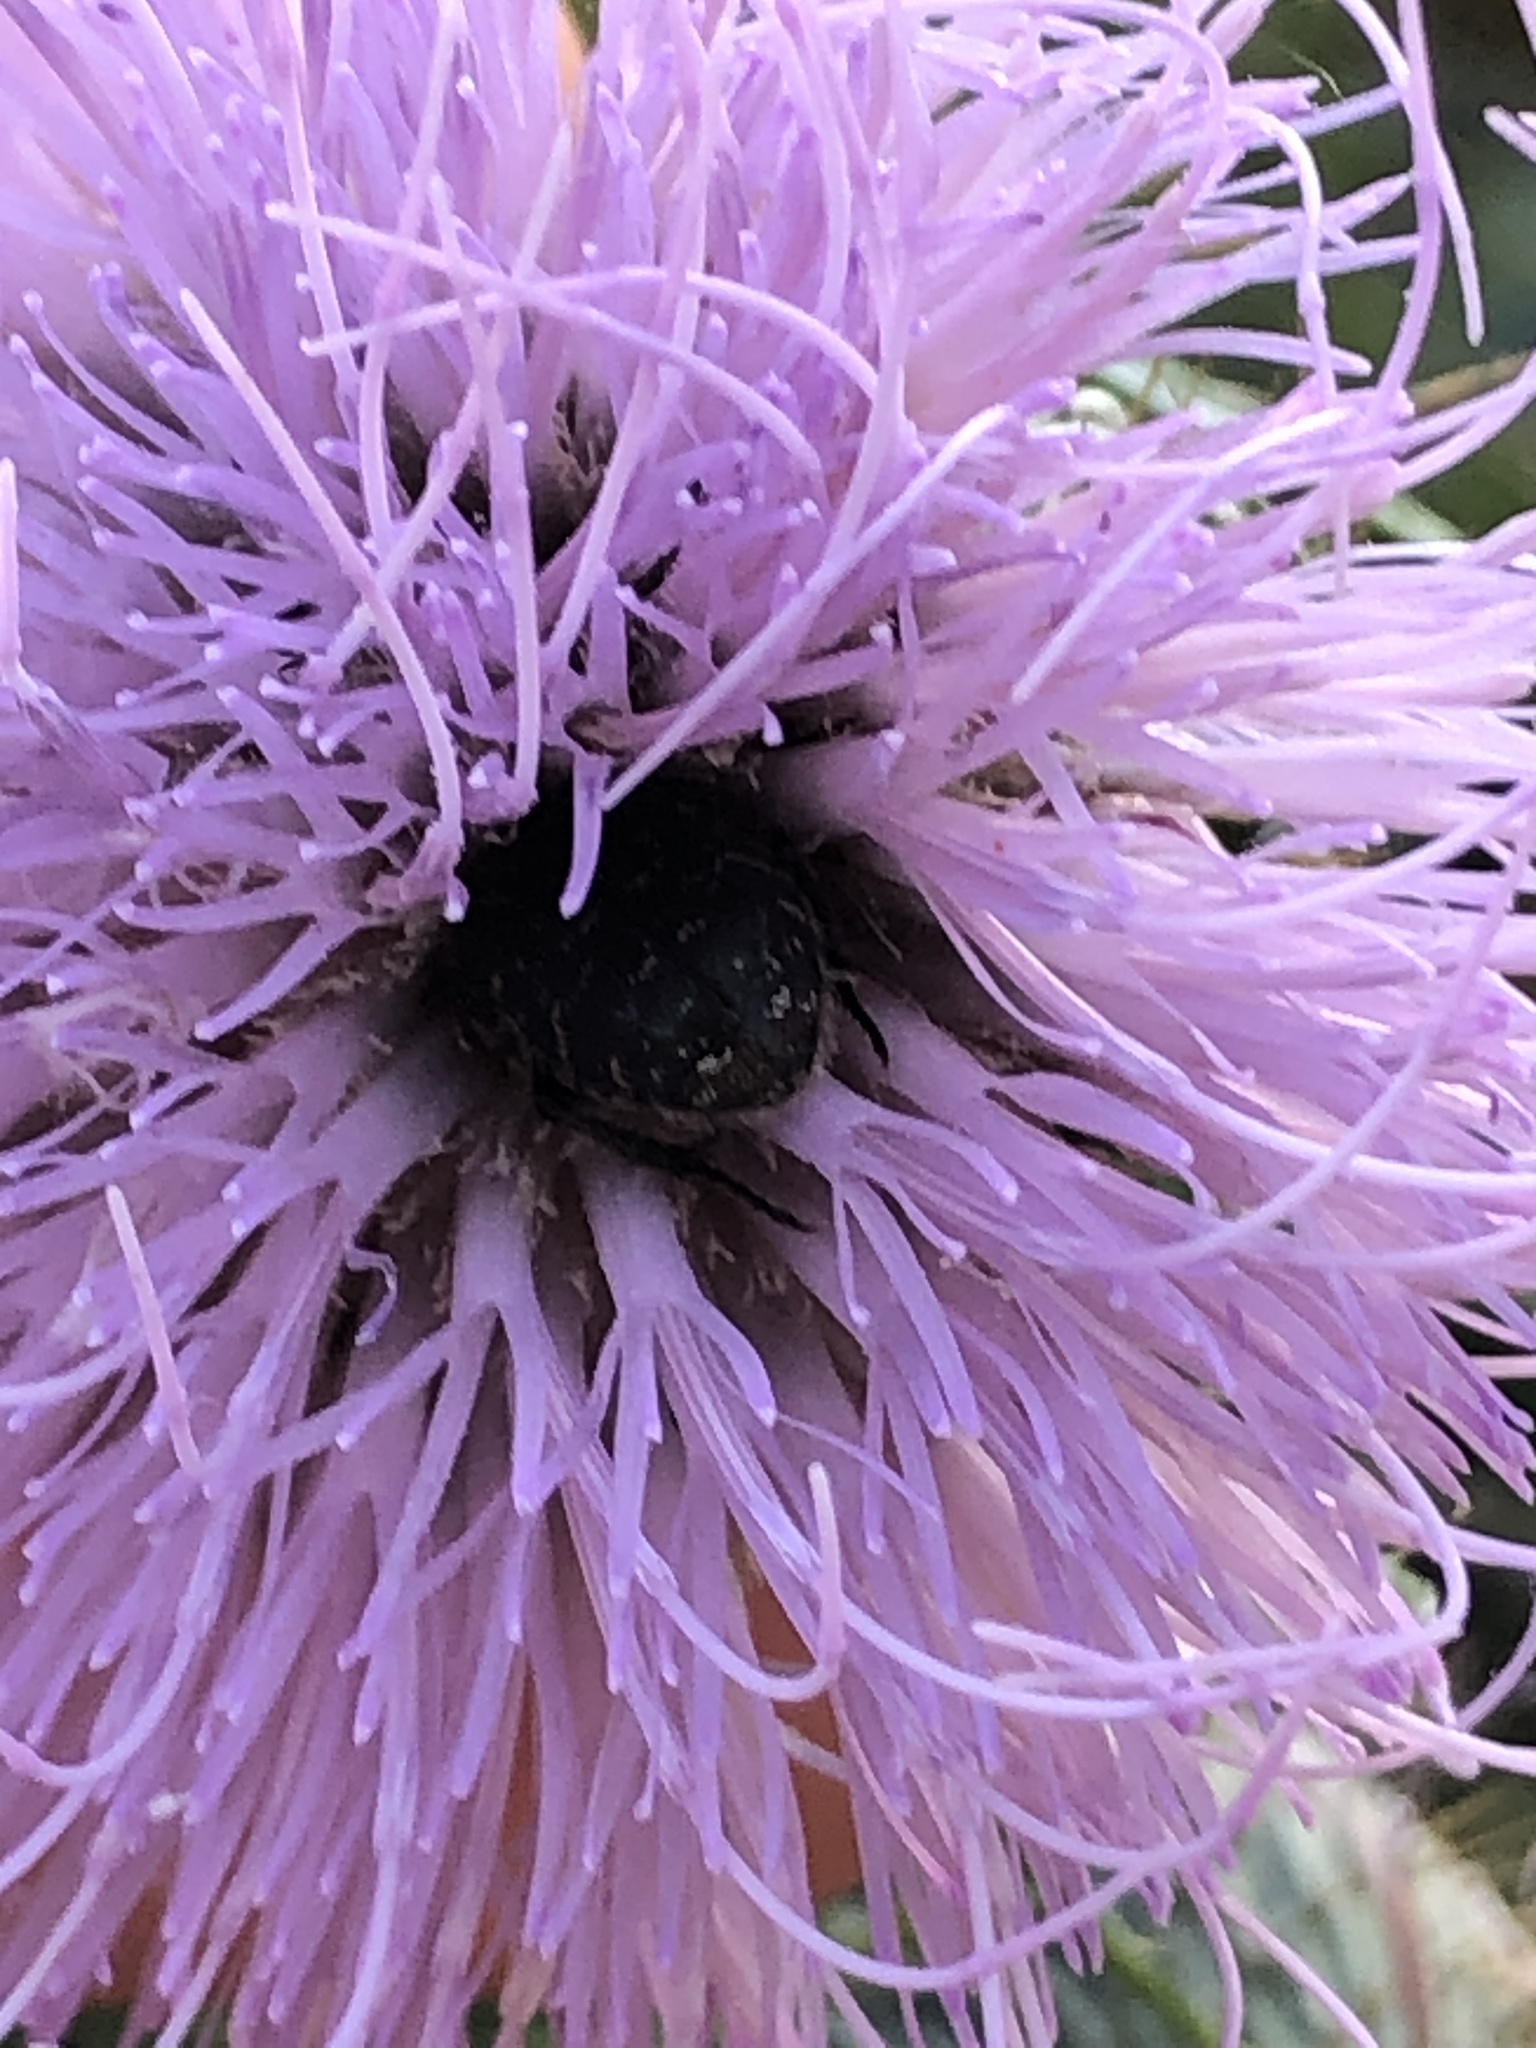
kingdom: Animalia
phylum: Arthropoda
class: Insecta
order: Coleoptera
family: Scarabaeidae
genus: Euphoria
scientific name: Euphoria sepulcralis
